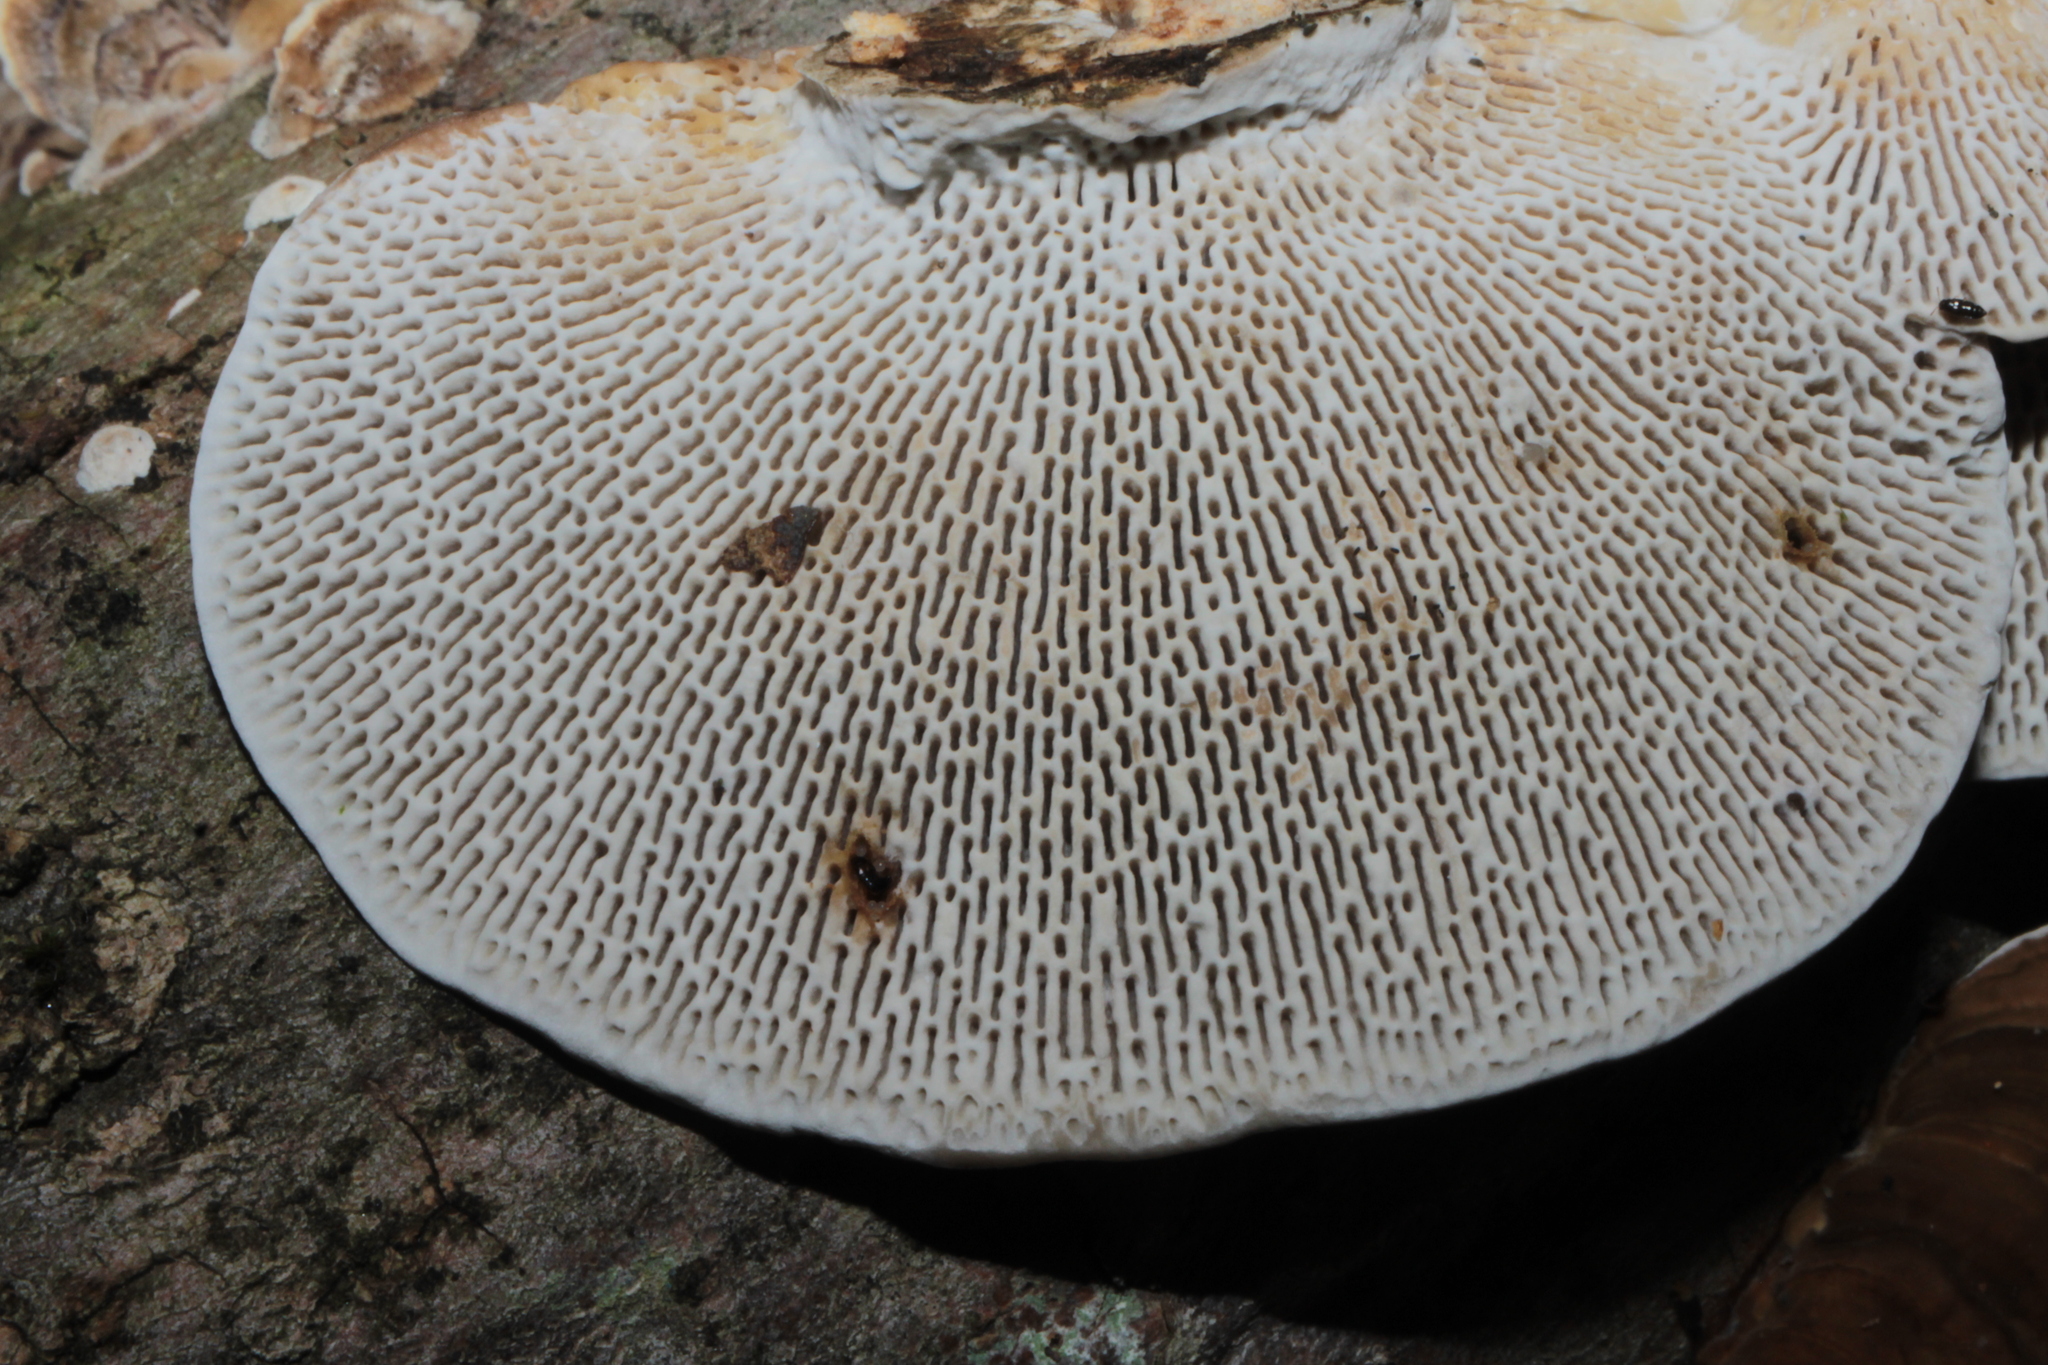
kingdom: Fungi
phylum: Basidiomycota
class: Agaricomycetes
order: Polyporales
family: Polyporaceae
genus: Daedaleopsis
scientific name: Daedaleopsis confragosa
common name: Blushing bracket
